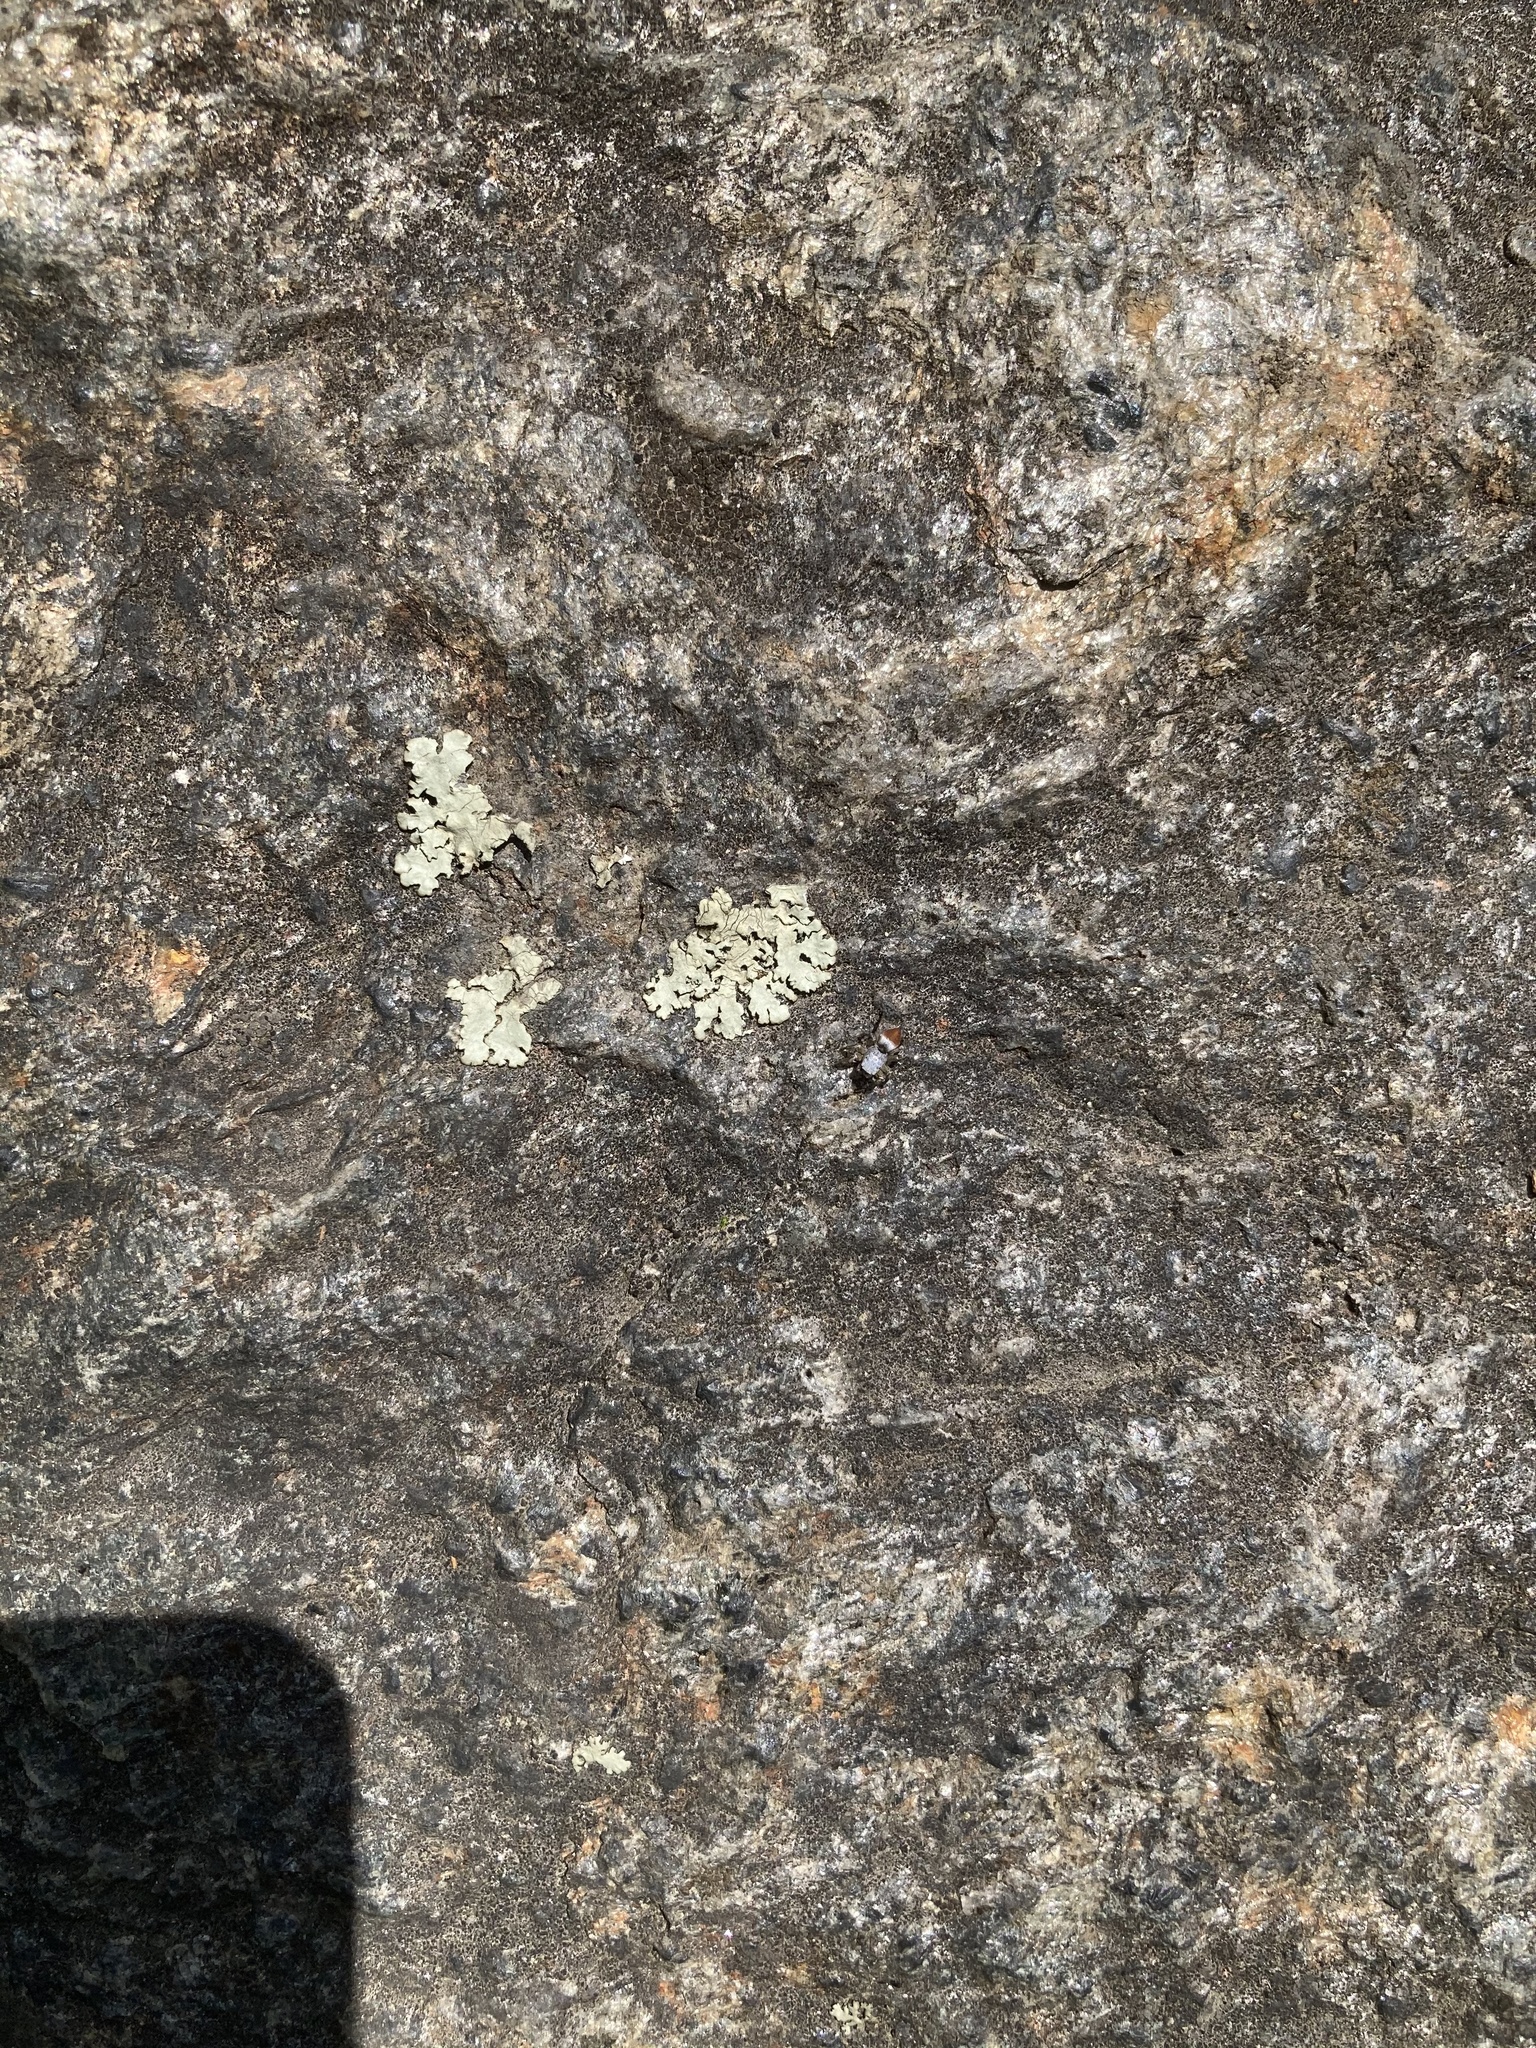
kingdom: Animalia
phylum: Arthropoda
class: Arachnida
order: Araneae
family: Salticidae
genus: Habronattus
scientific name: Habronattus decorus
